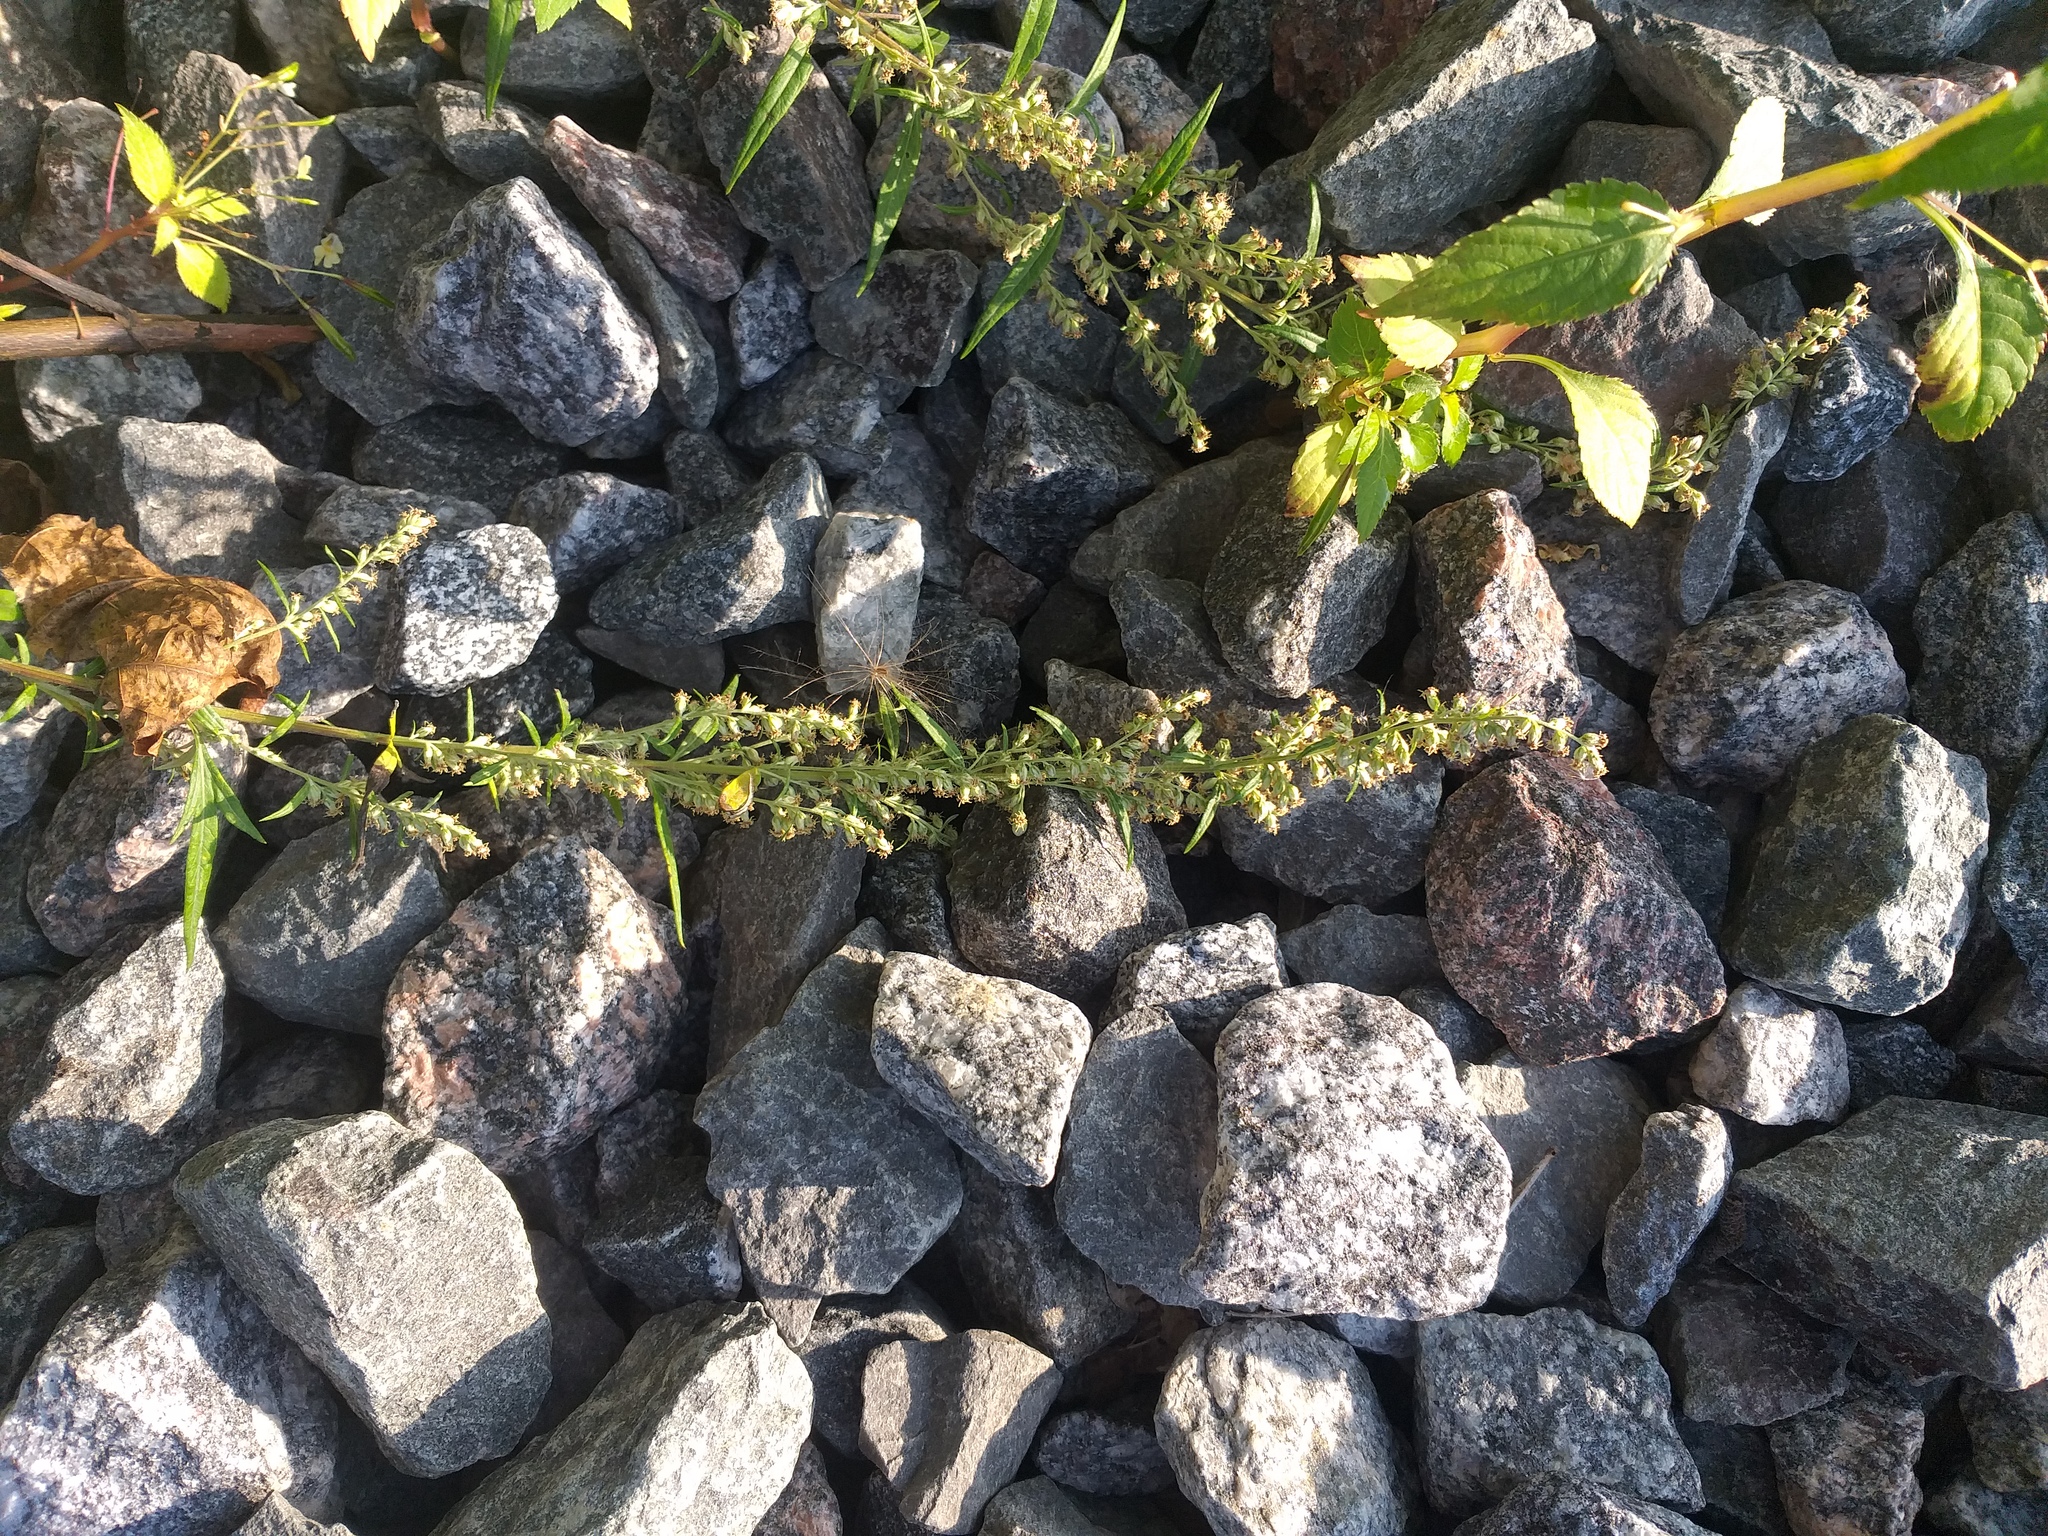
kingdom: Plantae
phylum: Tracheophyta
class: Magnoliopsida
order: Asterales
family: Asteraceae
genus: Artemisia
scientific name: Artemisia vulgaris
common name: Mugwort
